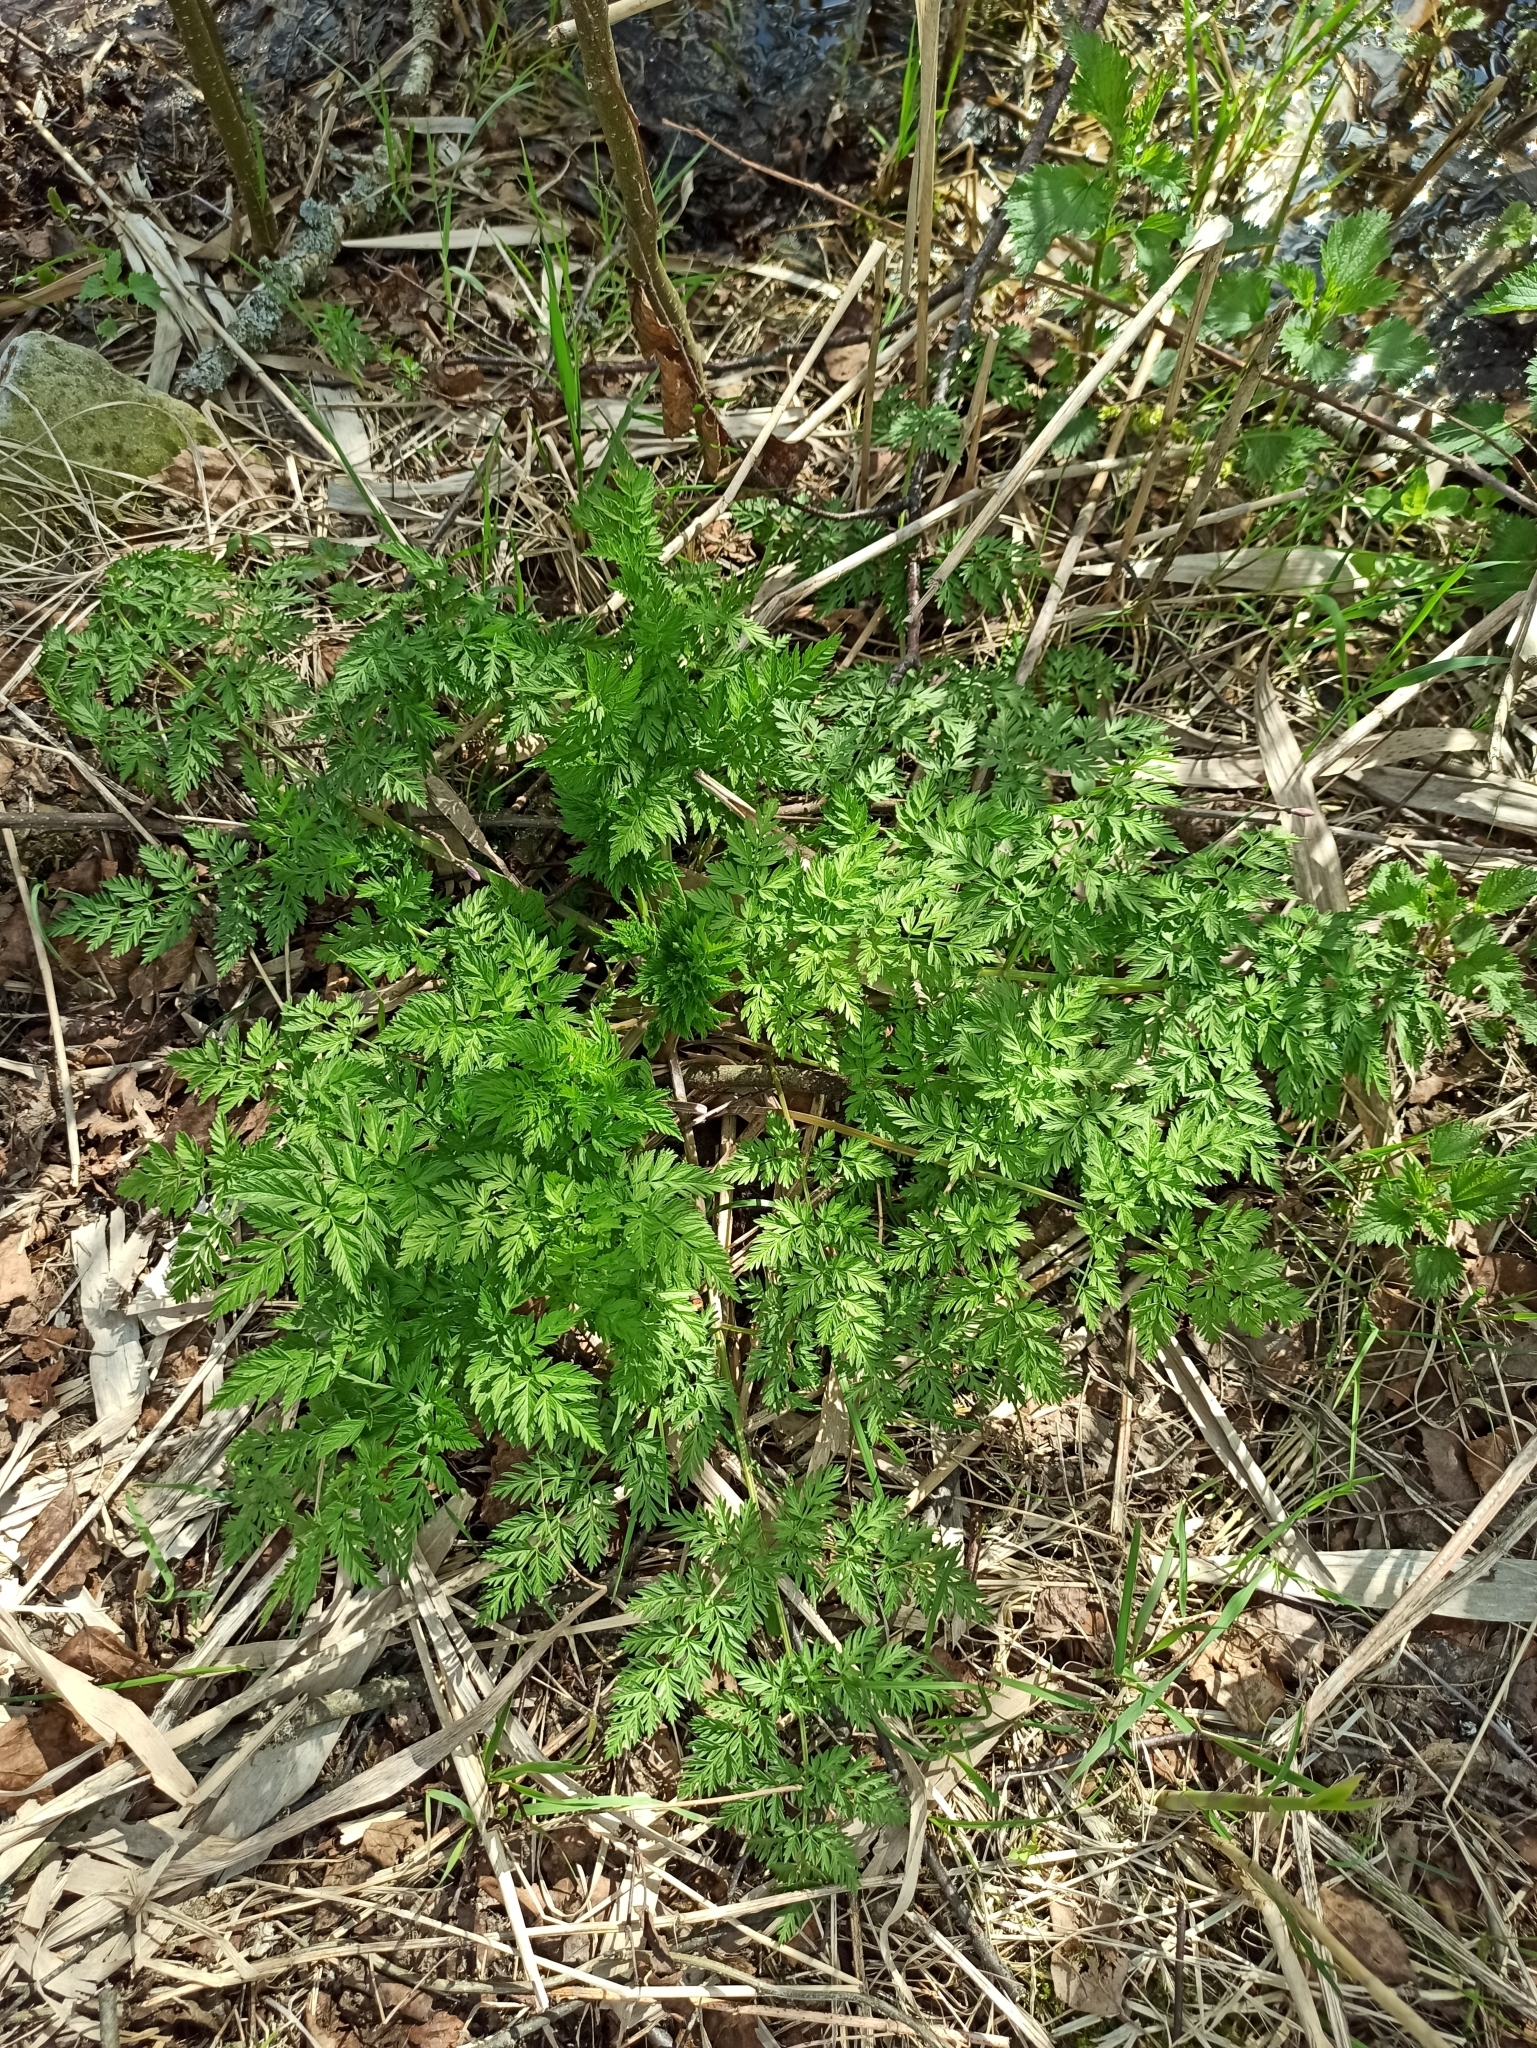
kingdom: Plantae
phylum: Tracheophyta
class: Magnoliopsida
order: Apiales
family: Apiaceae
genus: Anthriscus
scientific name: Anthriscus sylvestris
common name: Cow parsley
